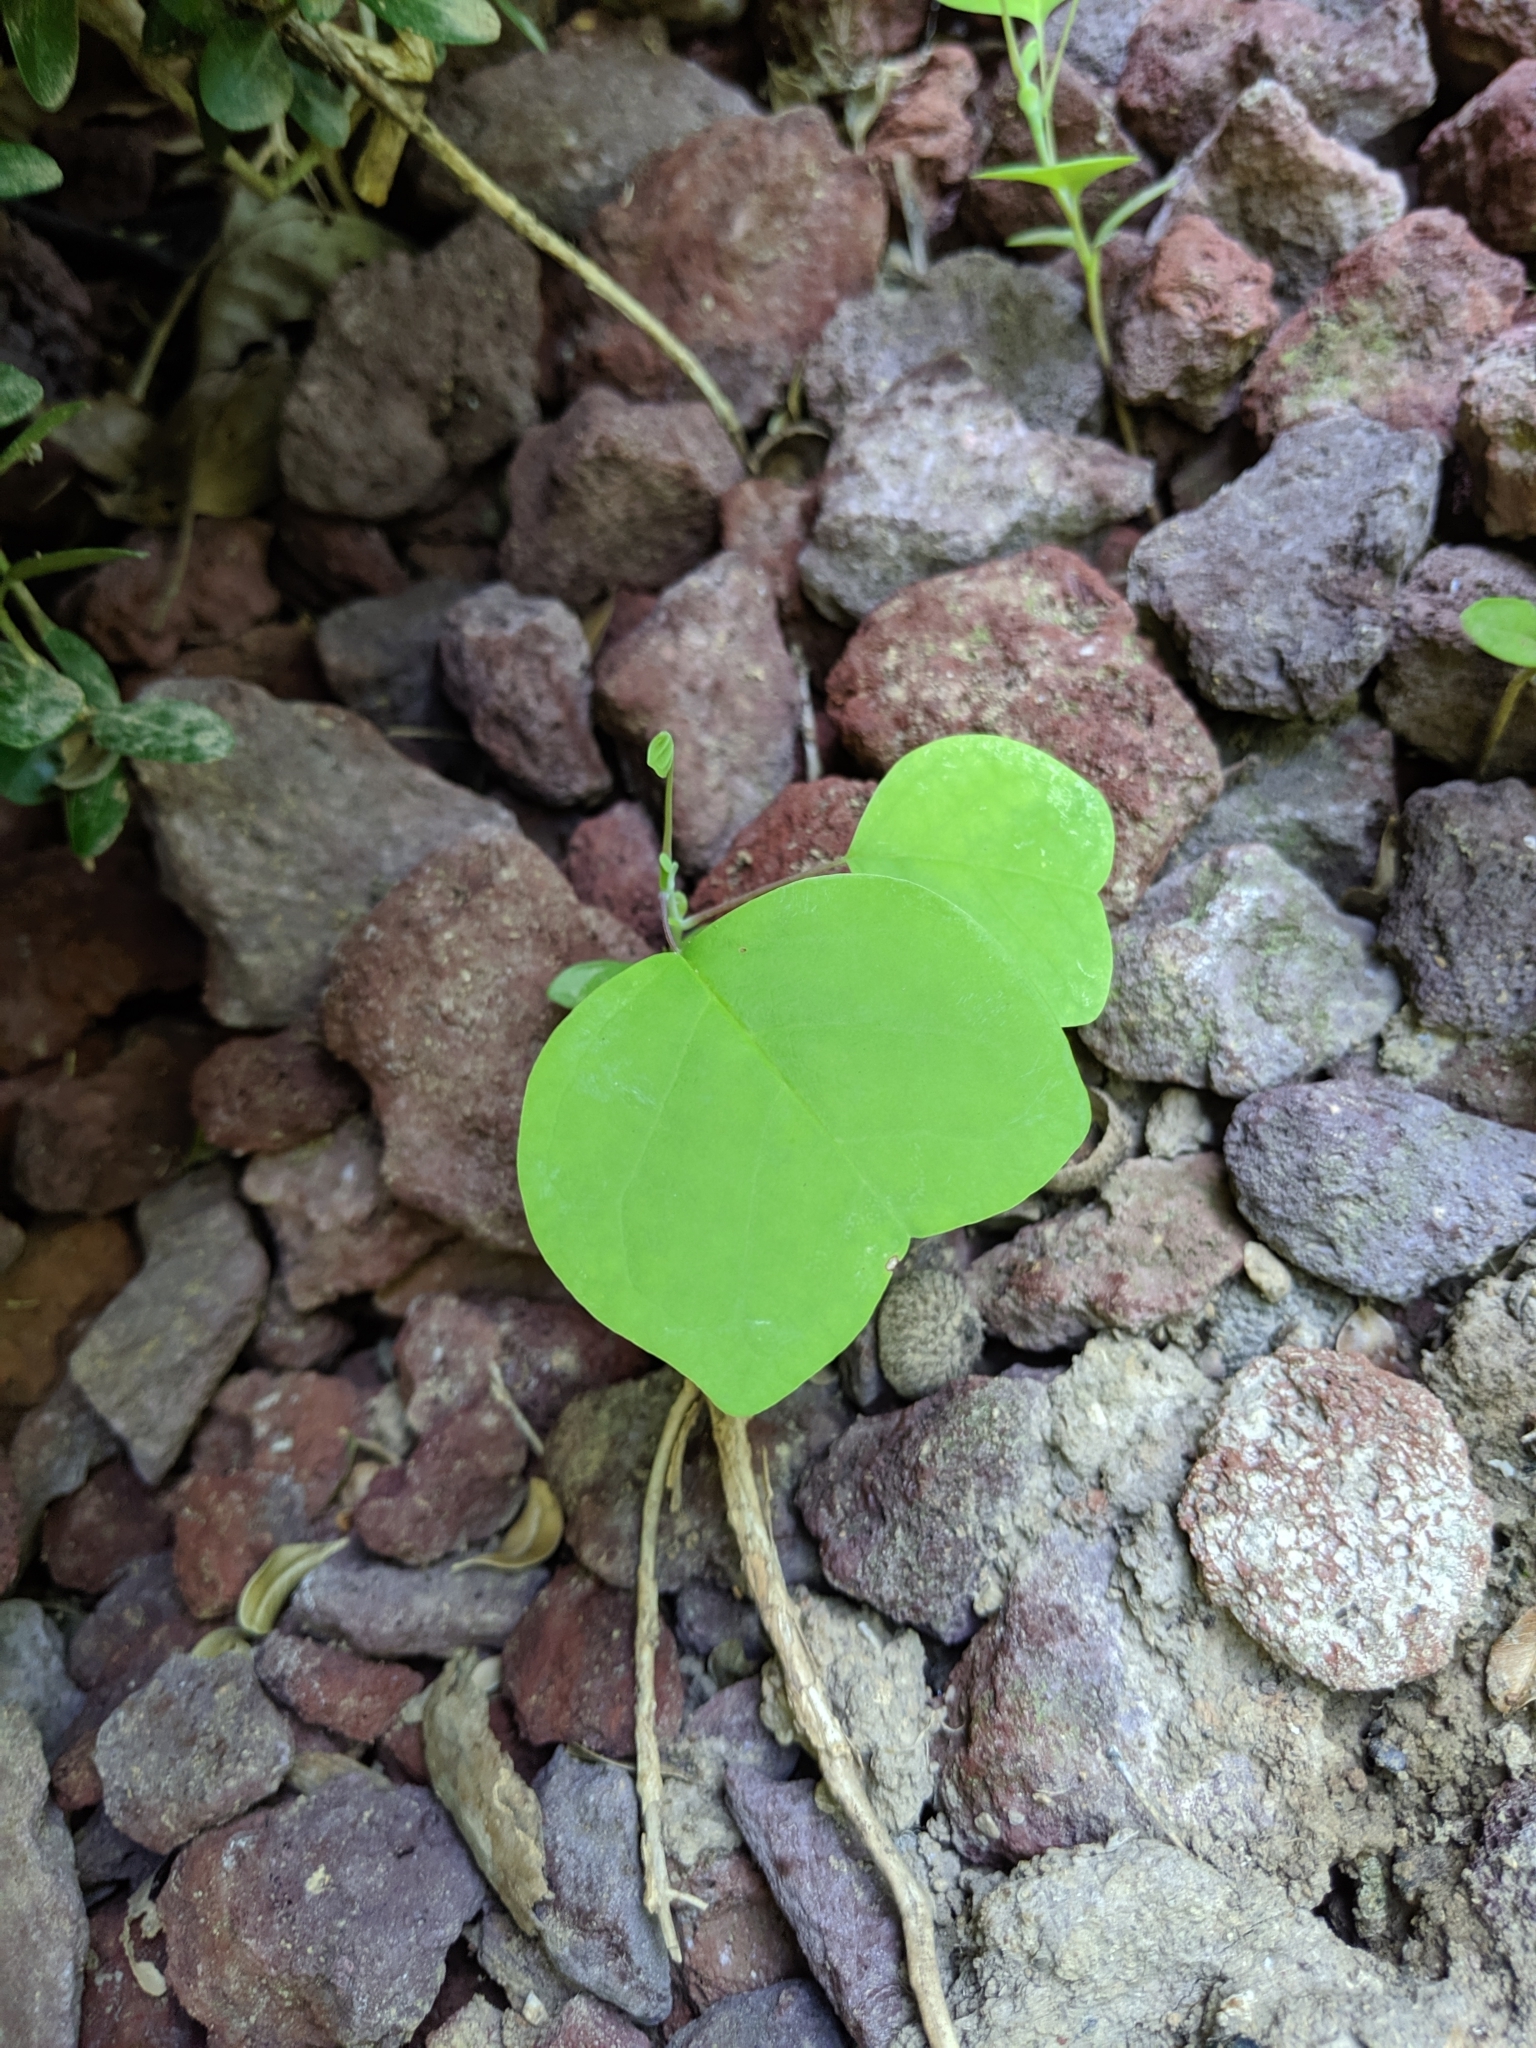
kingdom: Plantae
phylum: Tracheophyta
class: Magnoliopsida
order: Magnoliales
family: Magnoliaceae
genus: Liriodendron
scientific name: Liriodendron tulipifera
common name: Tulip tree
